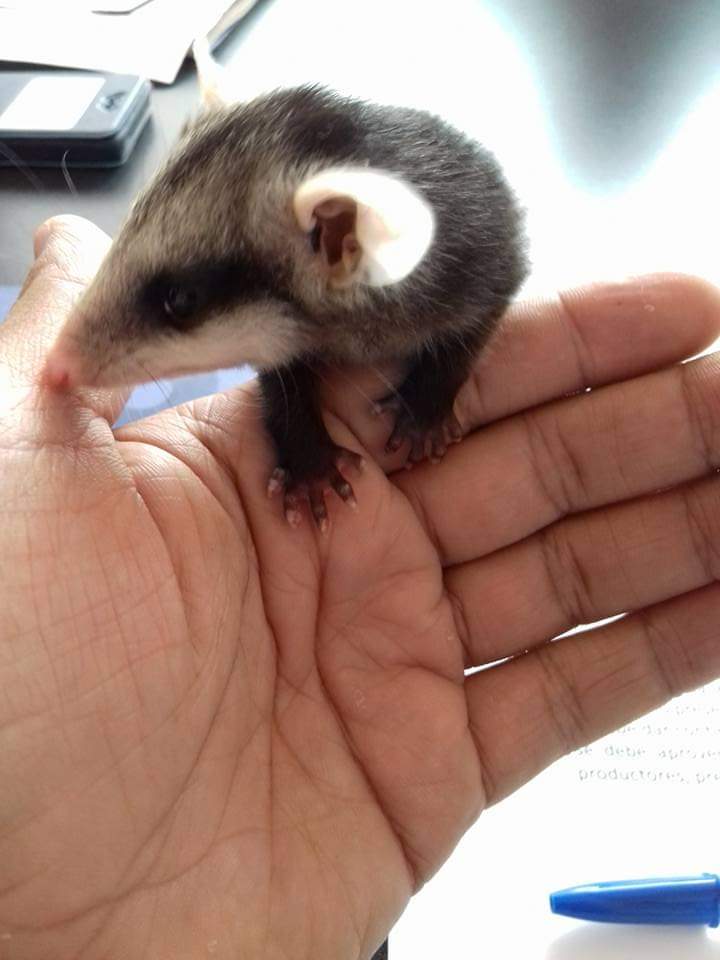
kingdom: Animalia
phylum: Chordata
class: Mammalia
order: Didelphimorphia
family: Didelphidae
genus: Didelphis
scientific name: Didelphis virginiana
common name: Virginia opossum
